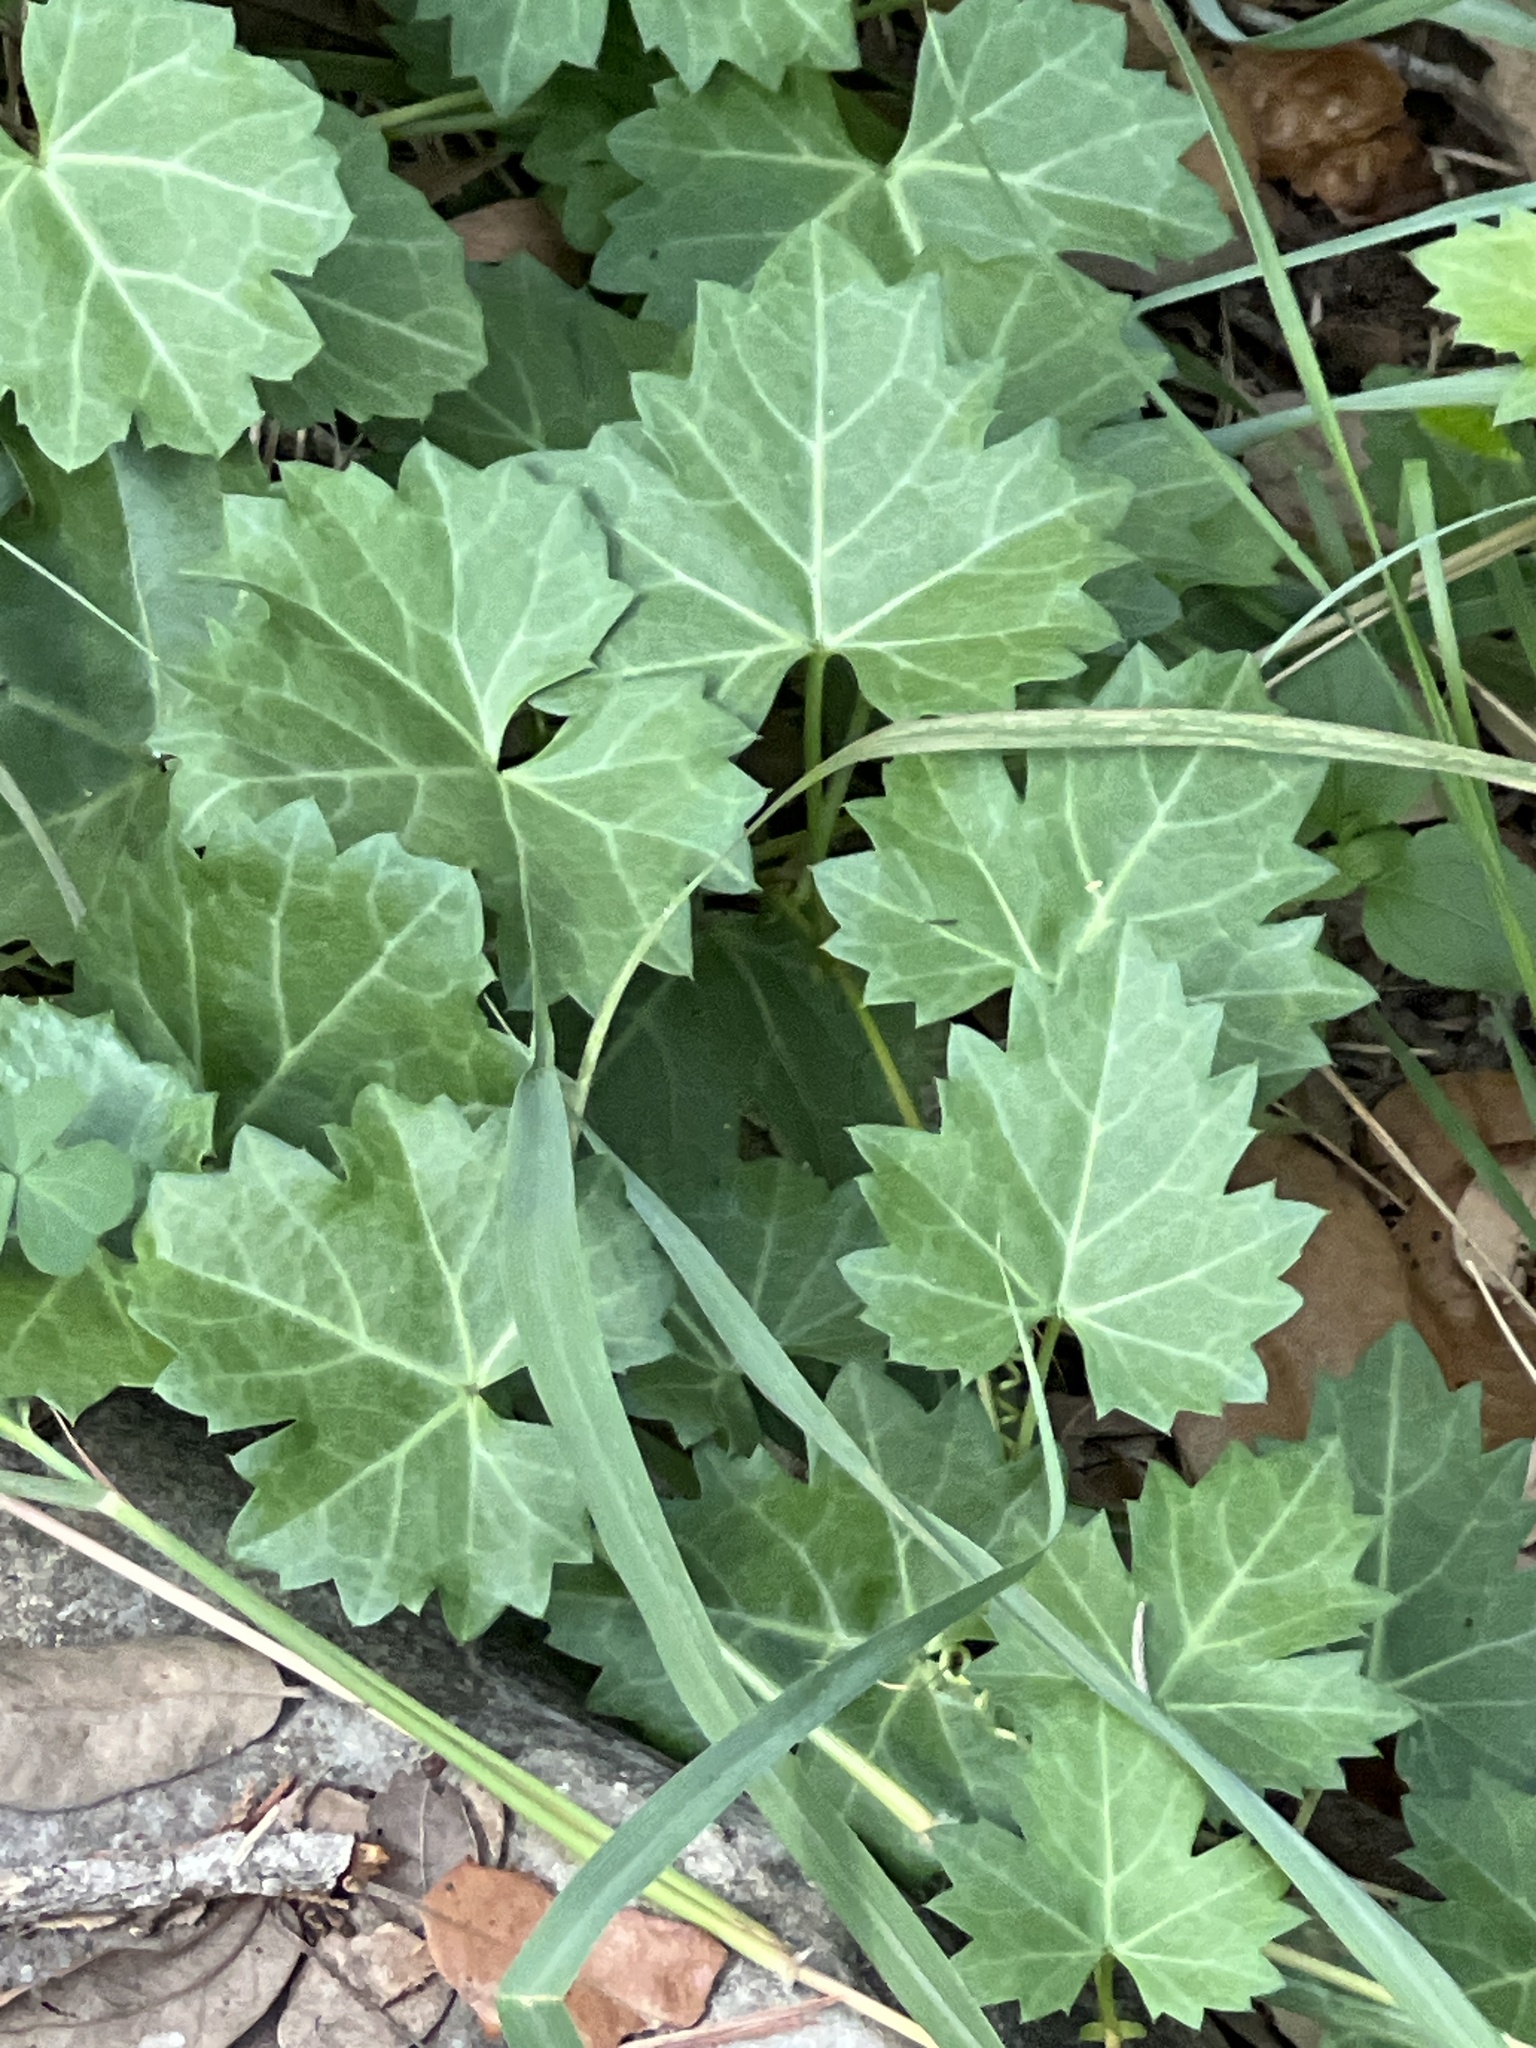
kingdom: Plantae
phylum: Tracheophyta
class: Magnoliopsida
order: Vitales
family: Vitaceae
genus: Cissus
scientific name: Cissus trifoliata
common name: Vine-sorrel
